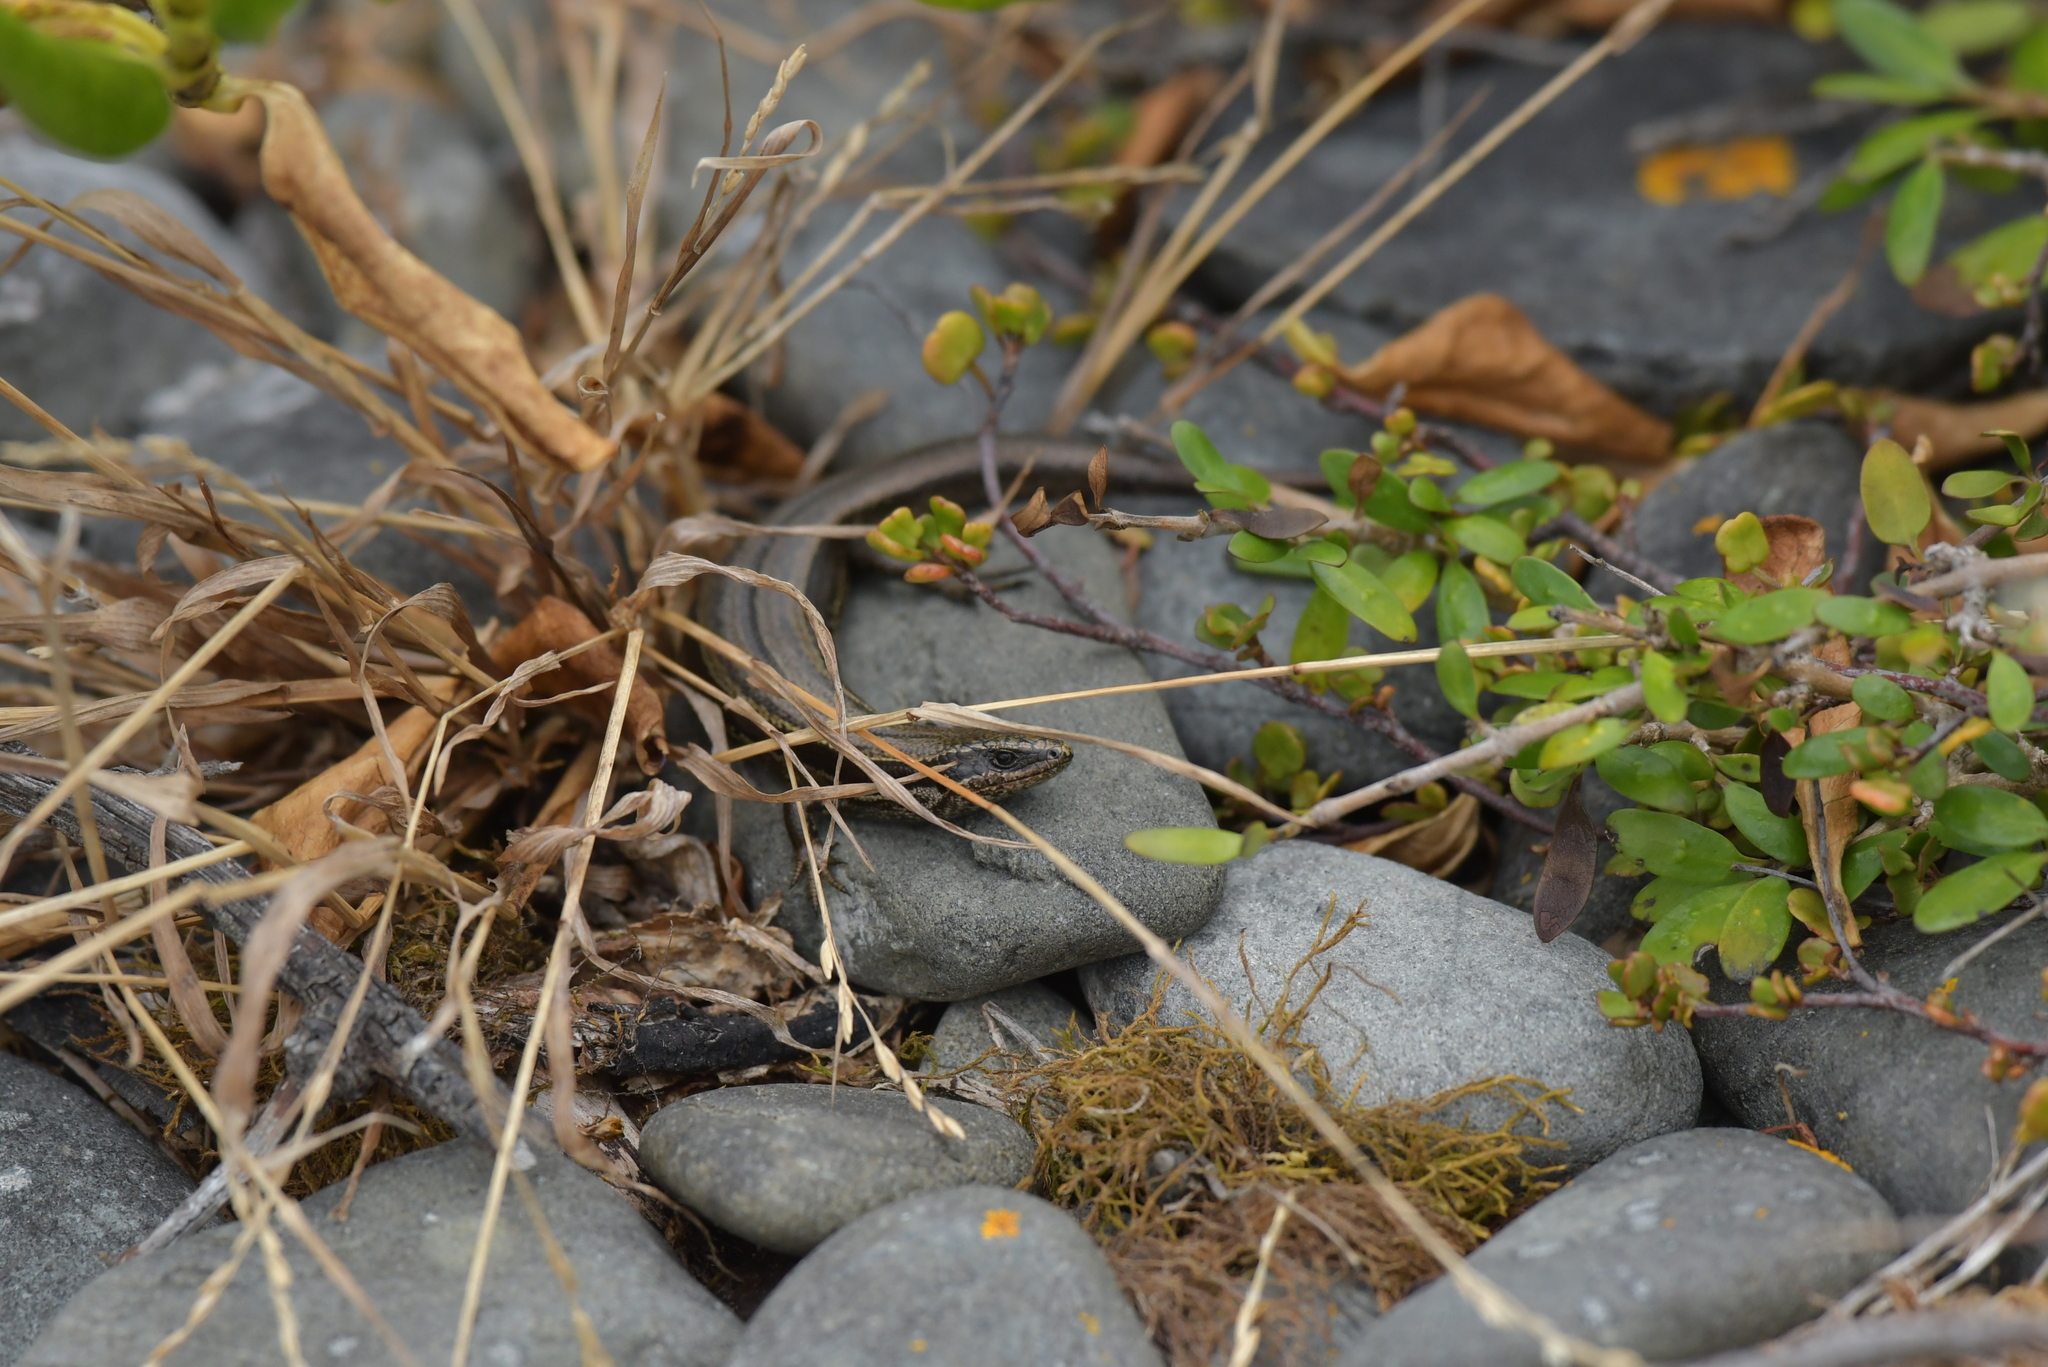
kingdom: Animalia
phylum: Chordata
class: Squamata
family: Scincidae
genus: Oligosoma
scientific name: Oligosoma polychroma
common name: Common new zealand skink
